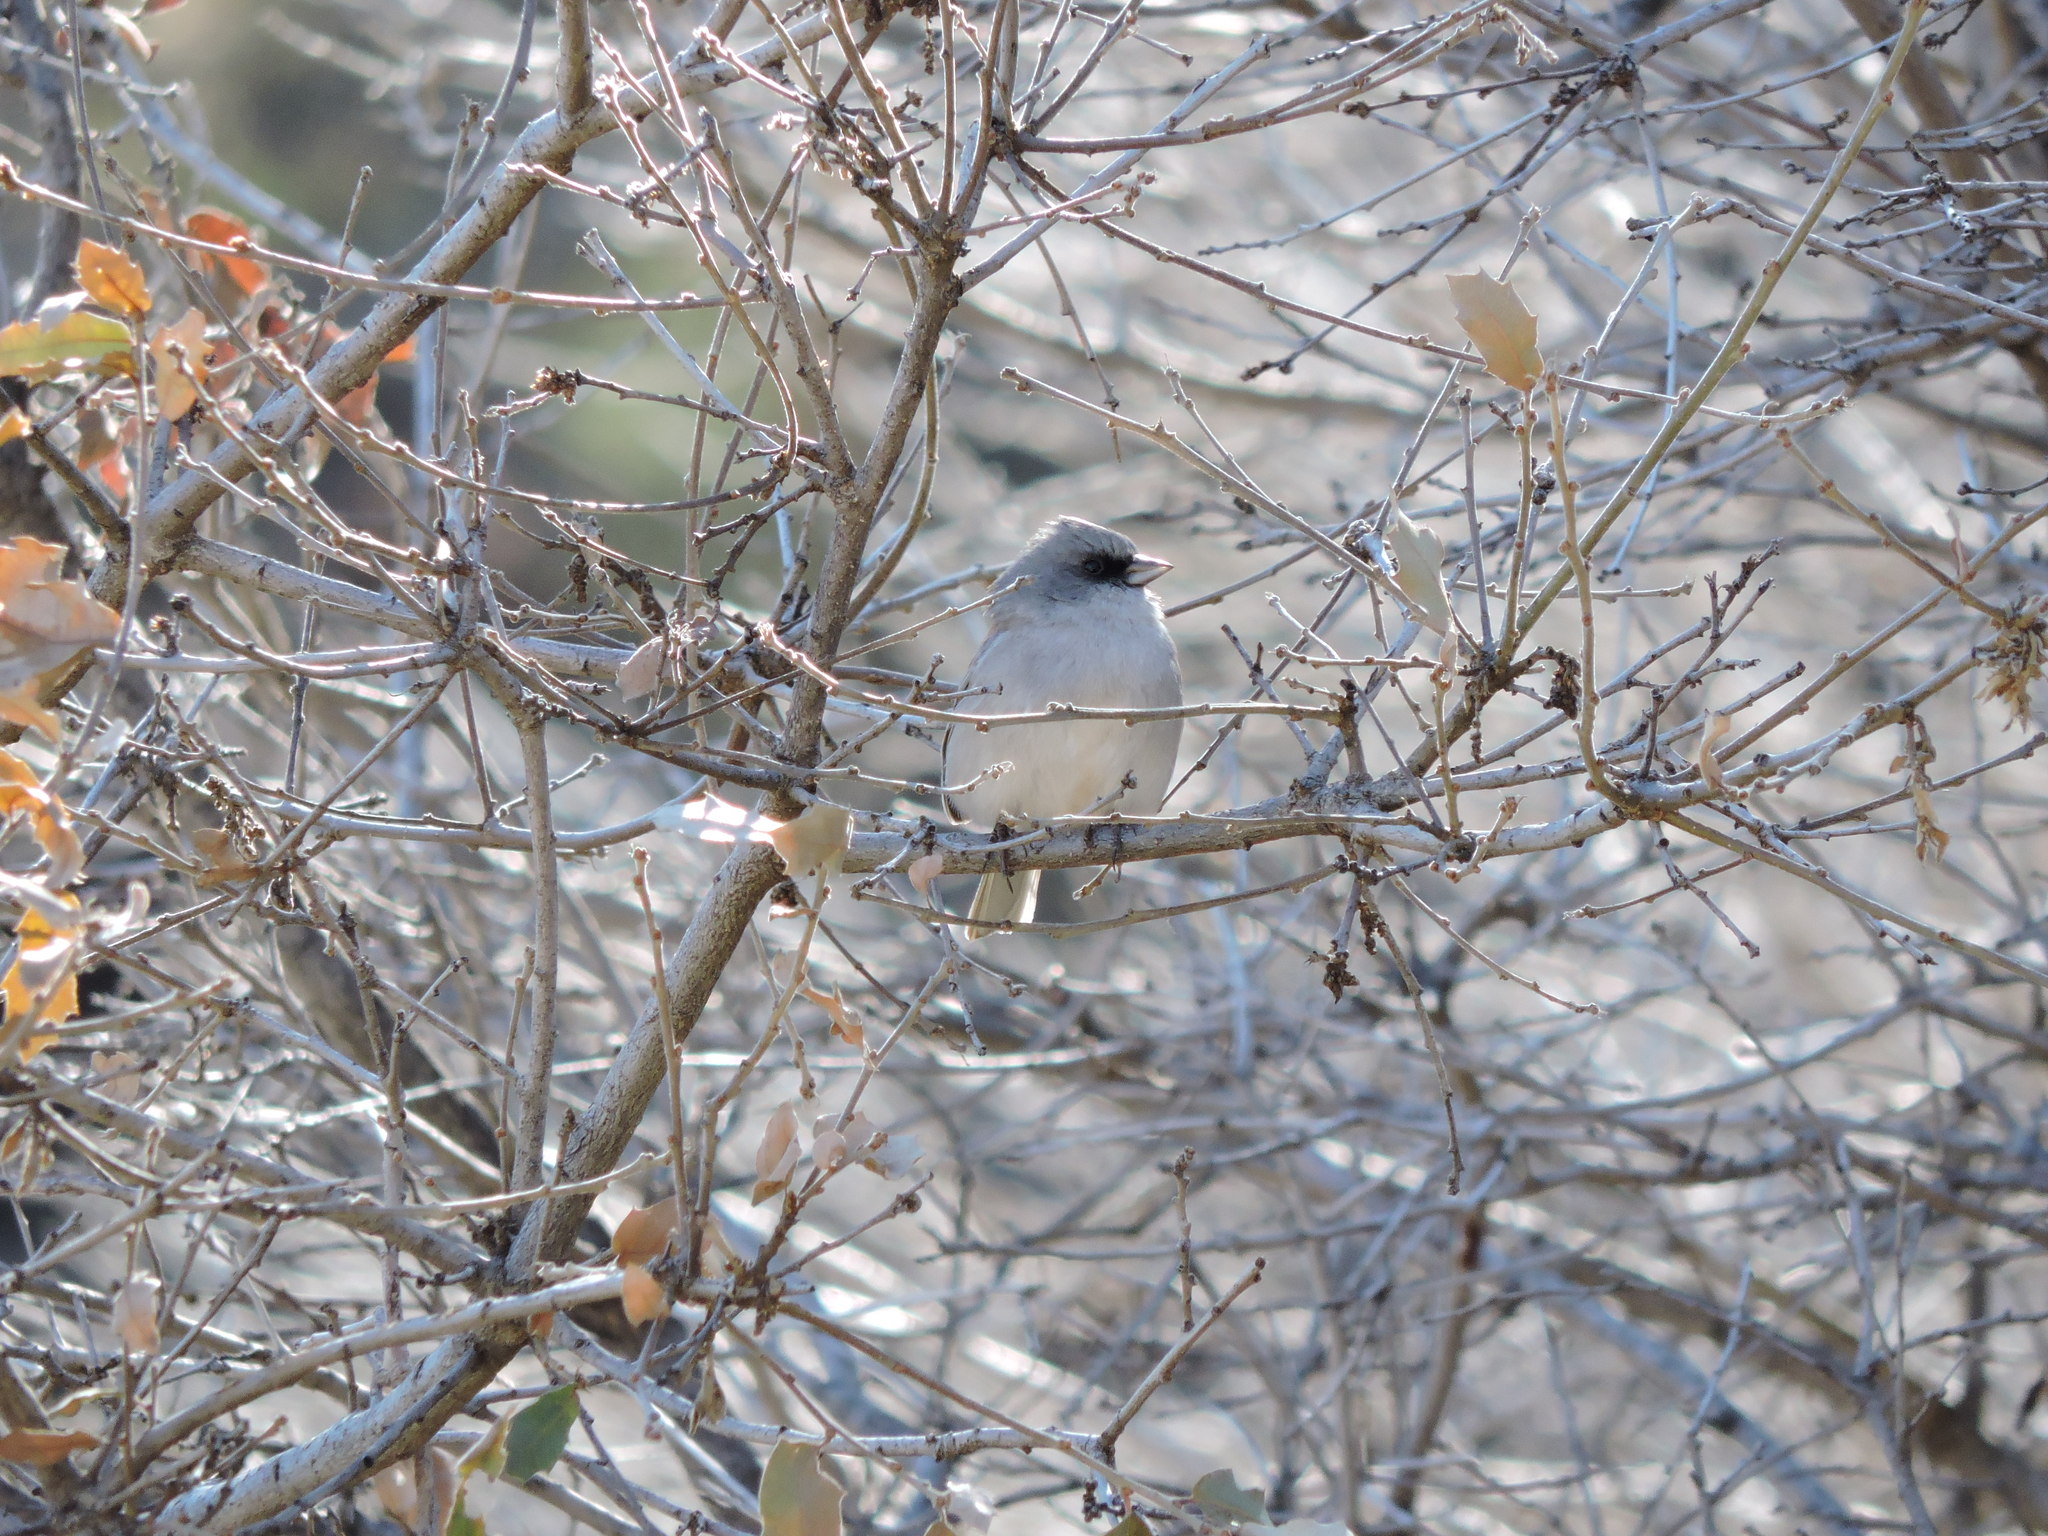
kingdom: Animalia
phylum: Chordata
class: Aves
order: Passeriformes
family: Passerellidae
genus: Junco
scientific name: Junco hyemalis
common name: Dark-eyed junco
